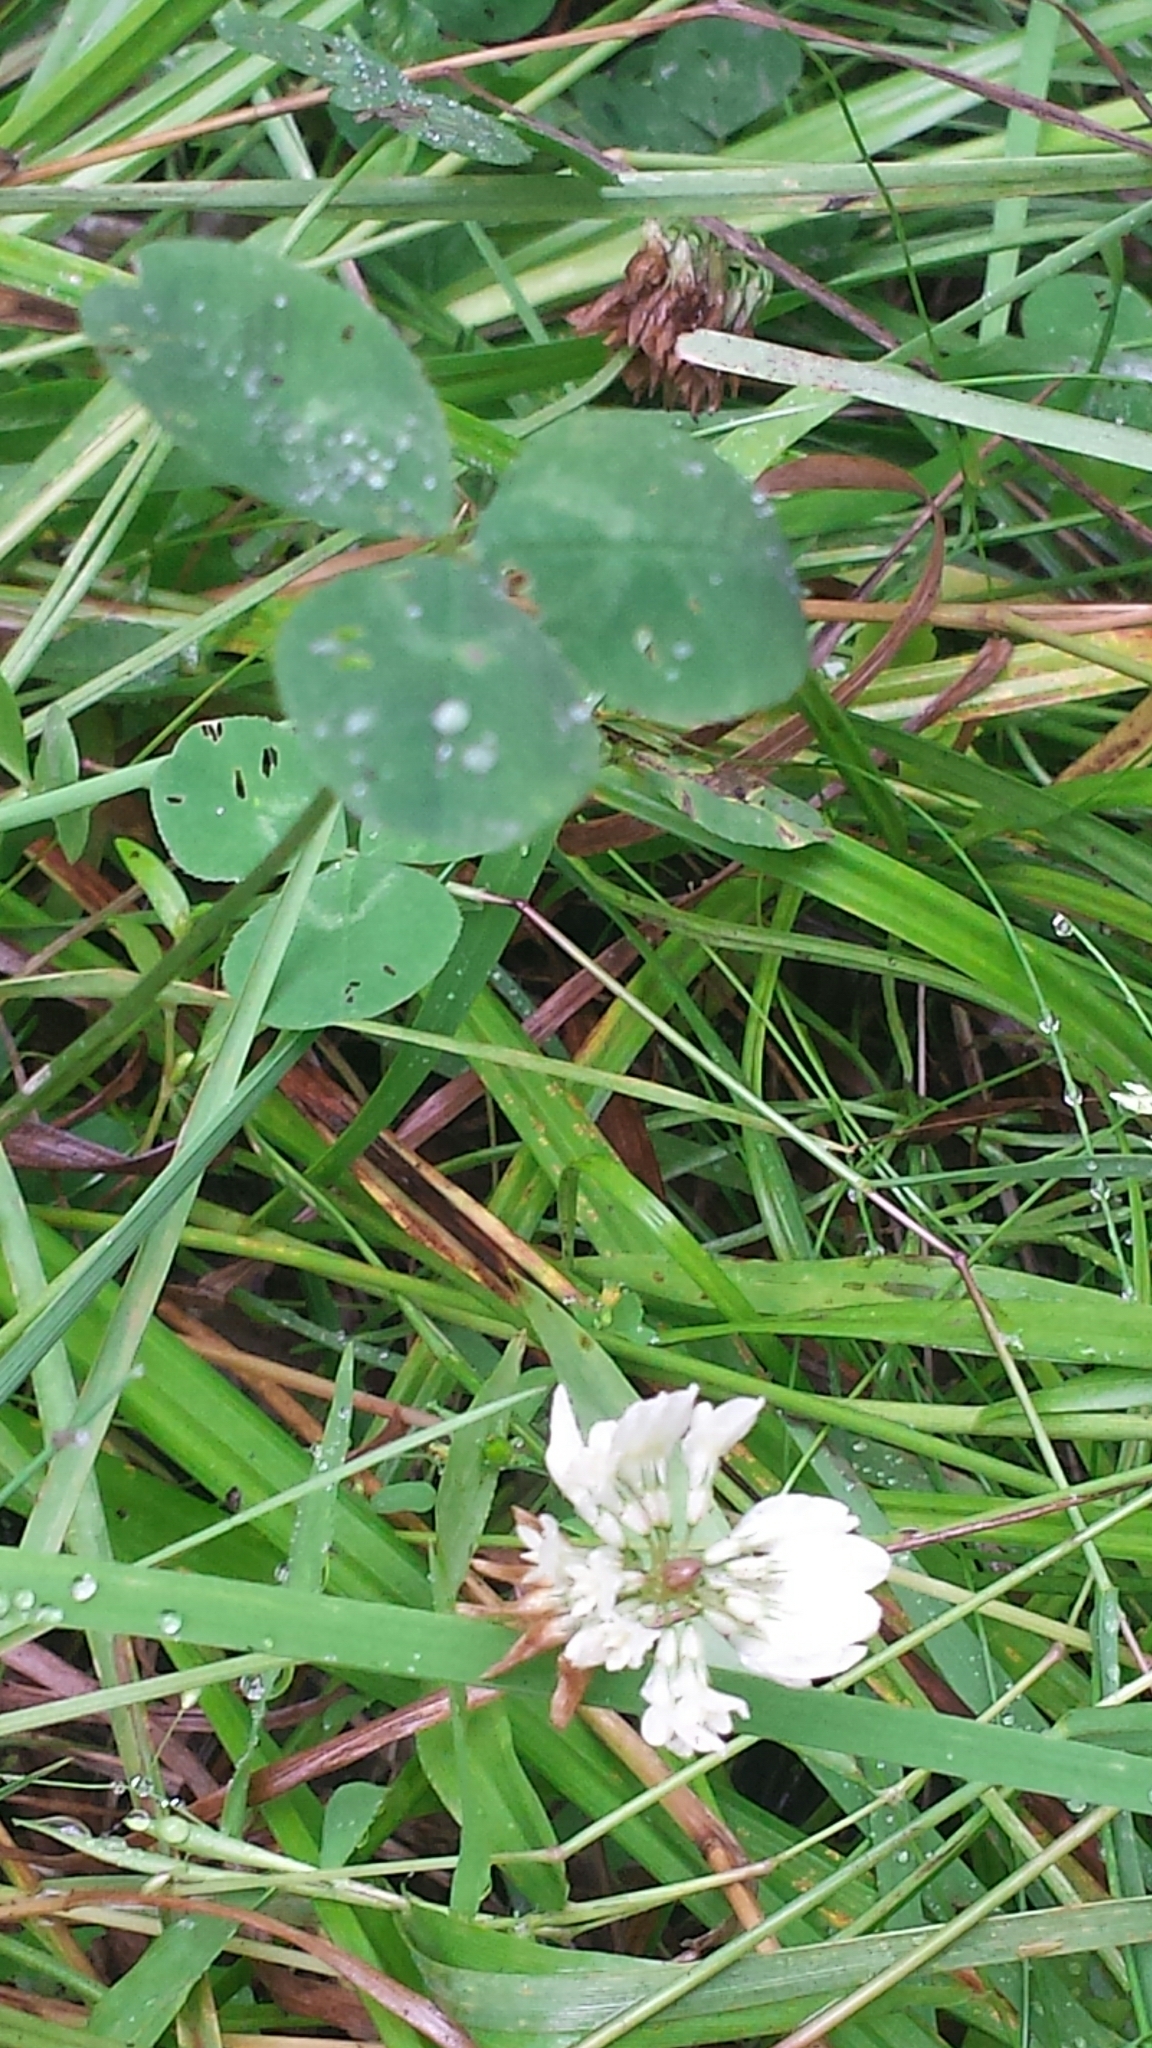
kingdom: Plantae
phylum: Tracheophyta
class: Magnoliopsida
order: Fabales
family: Fabaceae
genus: Trifolium
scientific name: Trifolium repens
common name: White clover
